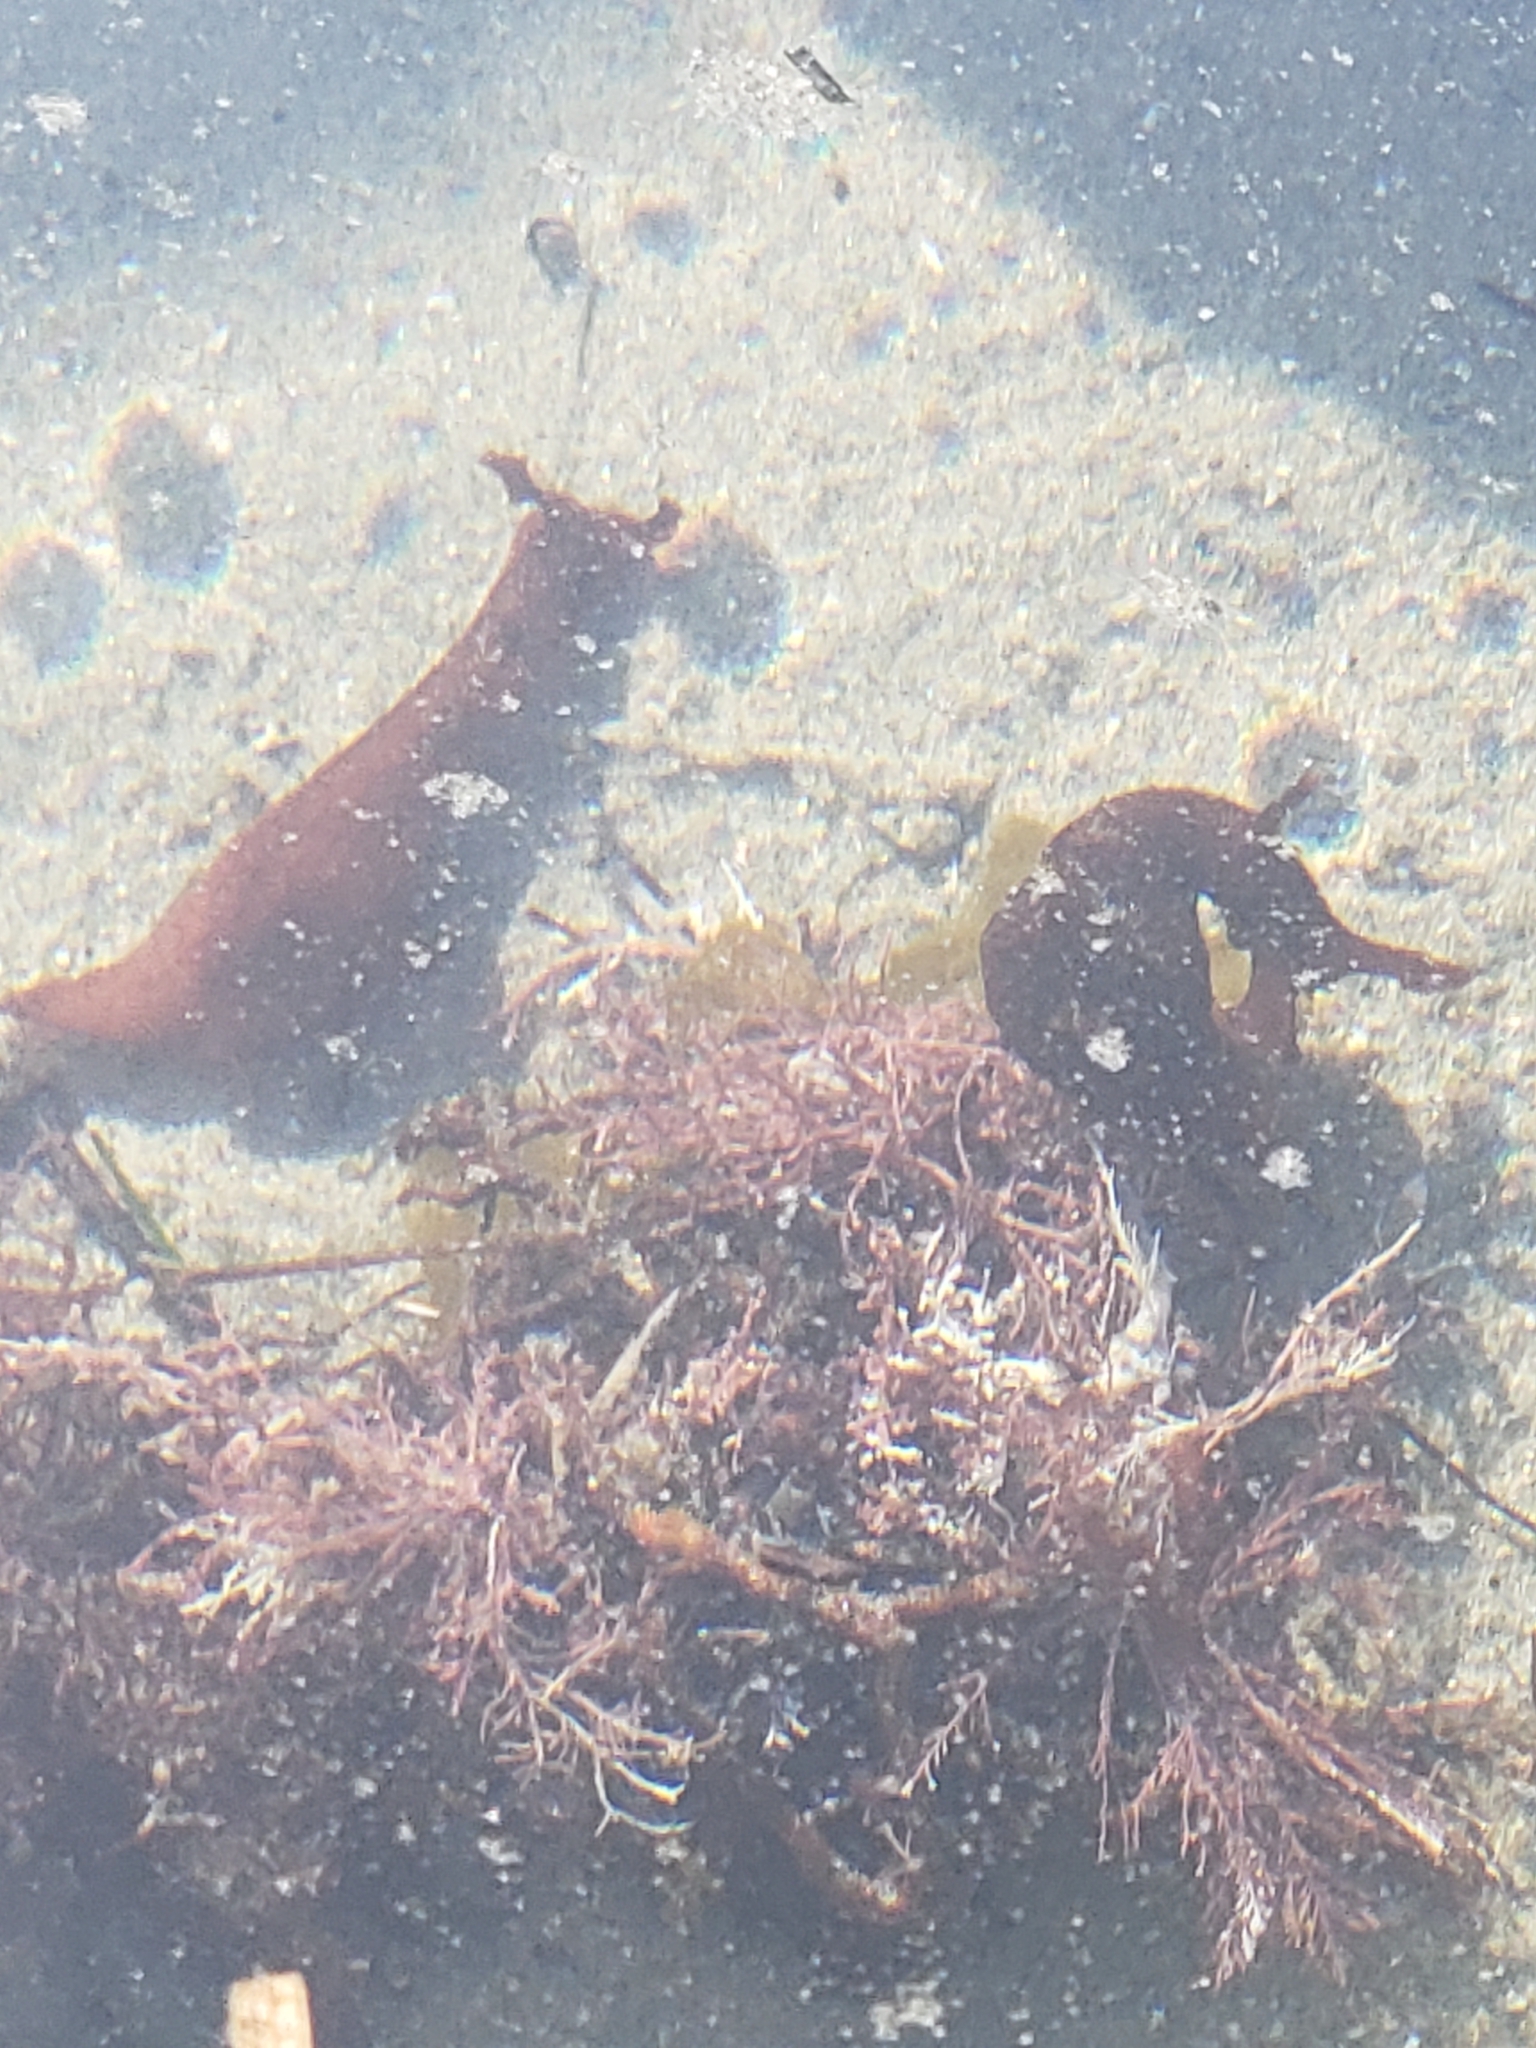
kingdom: Animalia
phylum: Mollusca
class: Gastropoda
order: Aplysiida
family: Aplysiidae
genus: Aplysia
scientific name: Aplysia californica
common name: California seahare
